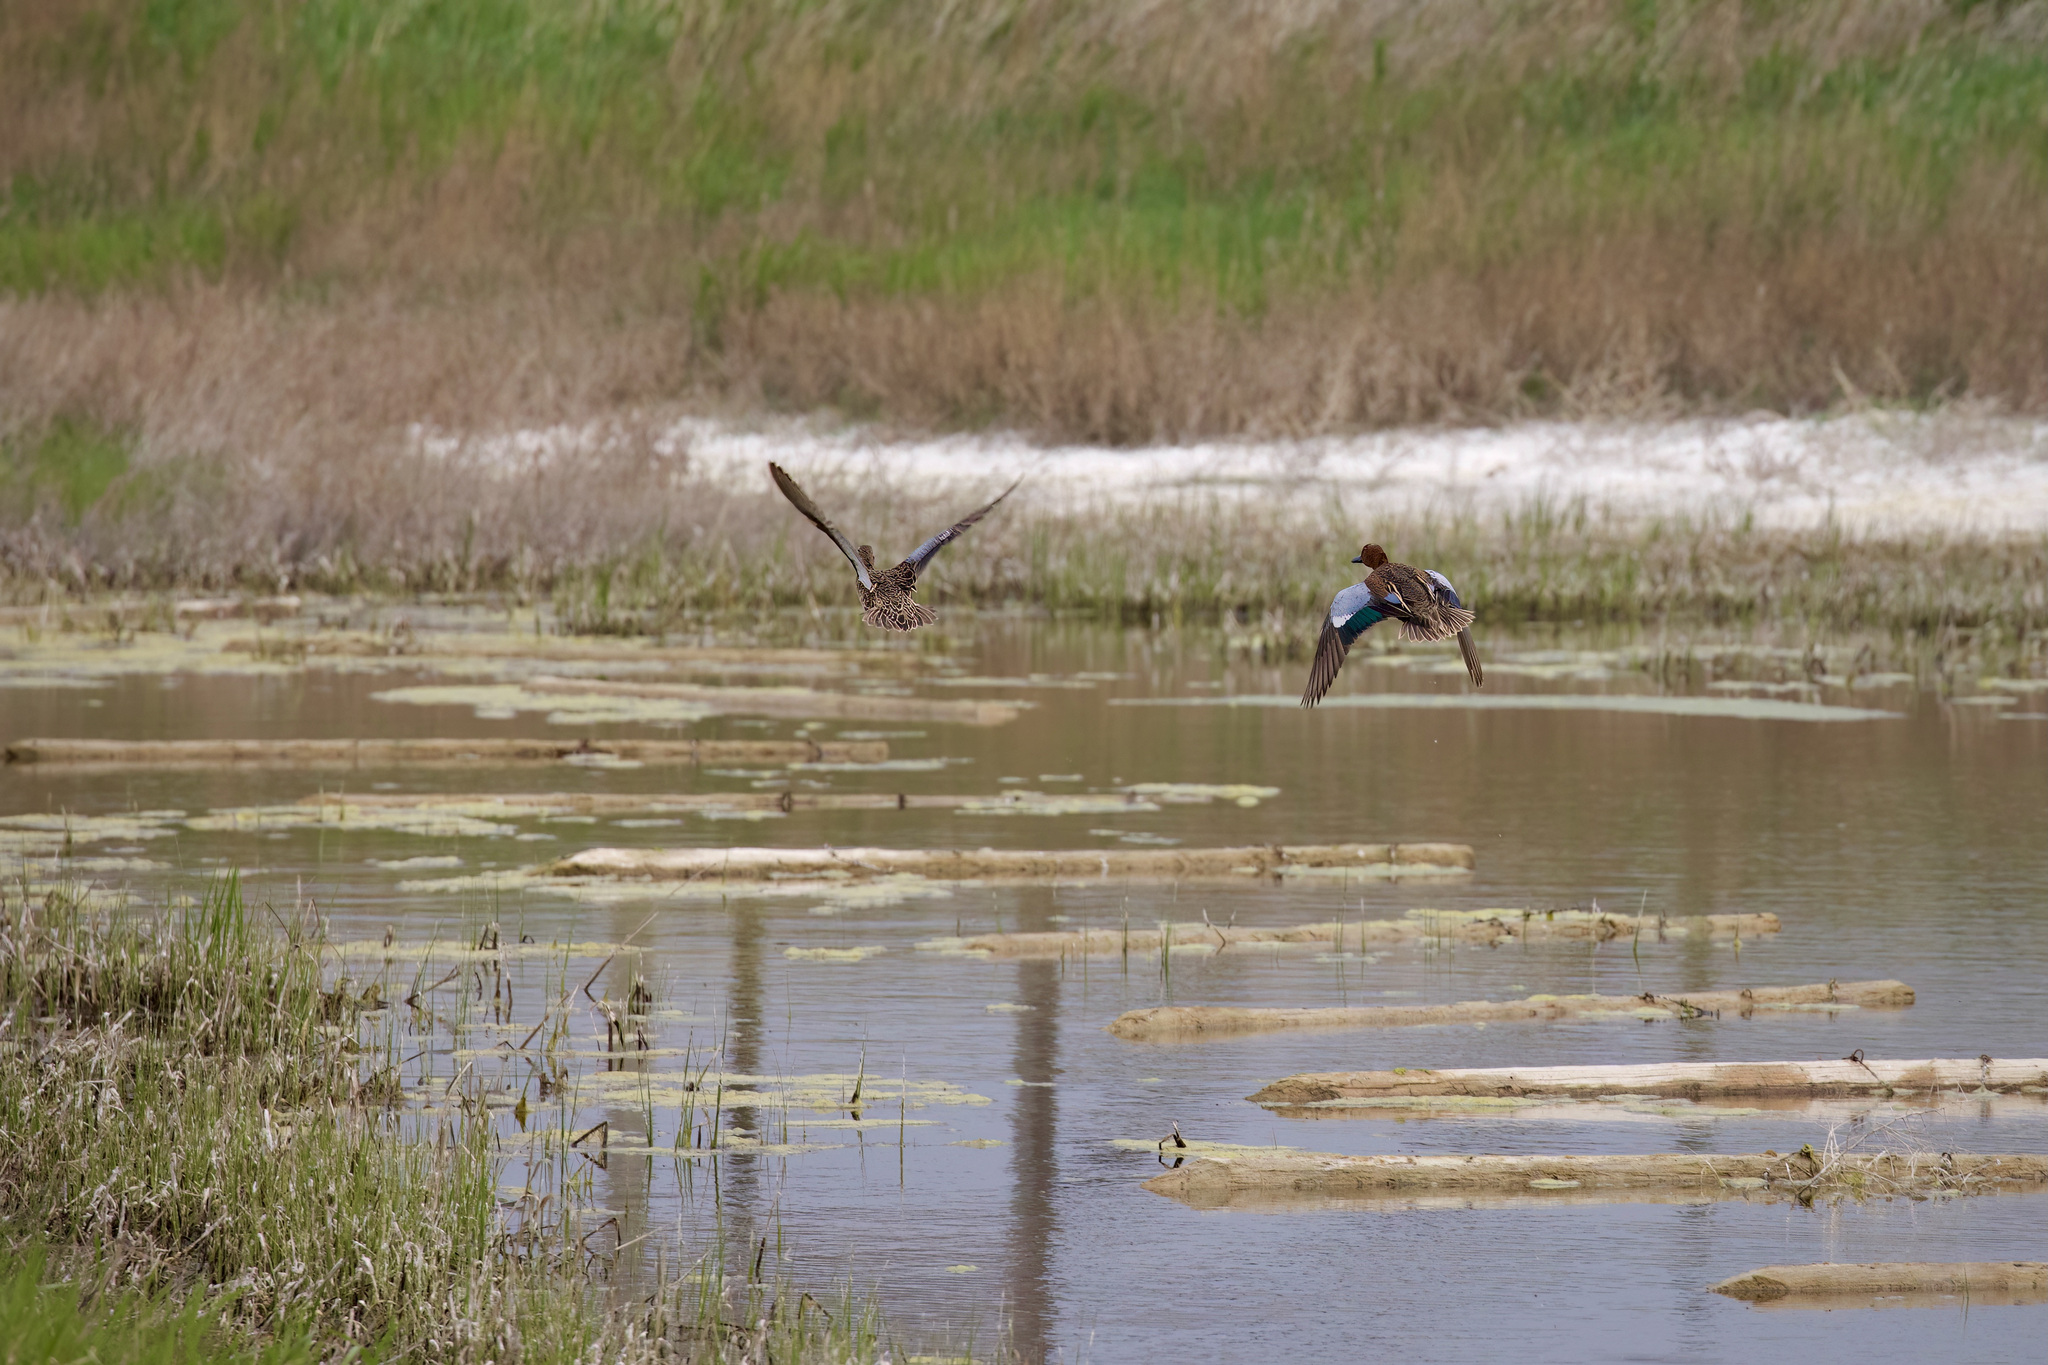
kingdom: Animalia
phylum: Chordata
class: Aves
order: Anseriformes
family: Anatidae
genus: Spatula
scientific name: Spatula cyanoptera
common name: Cinnamon teal
